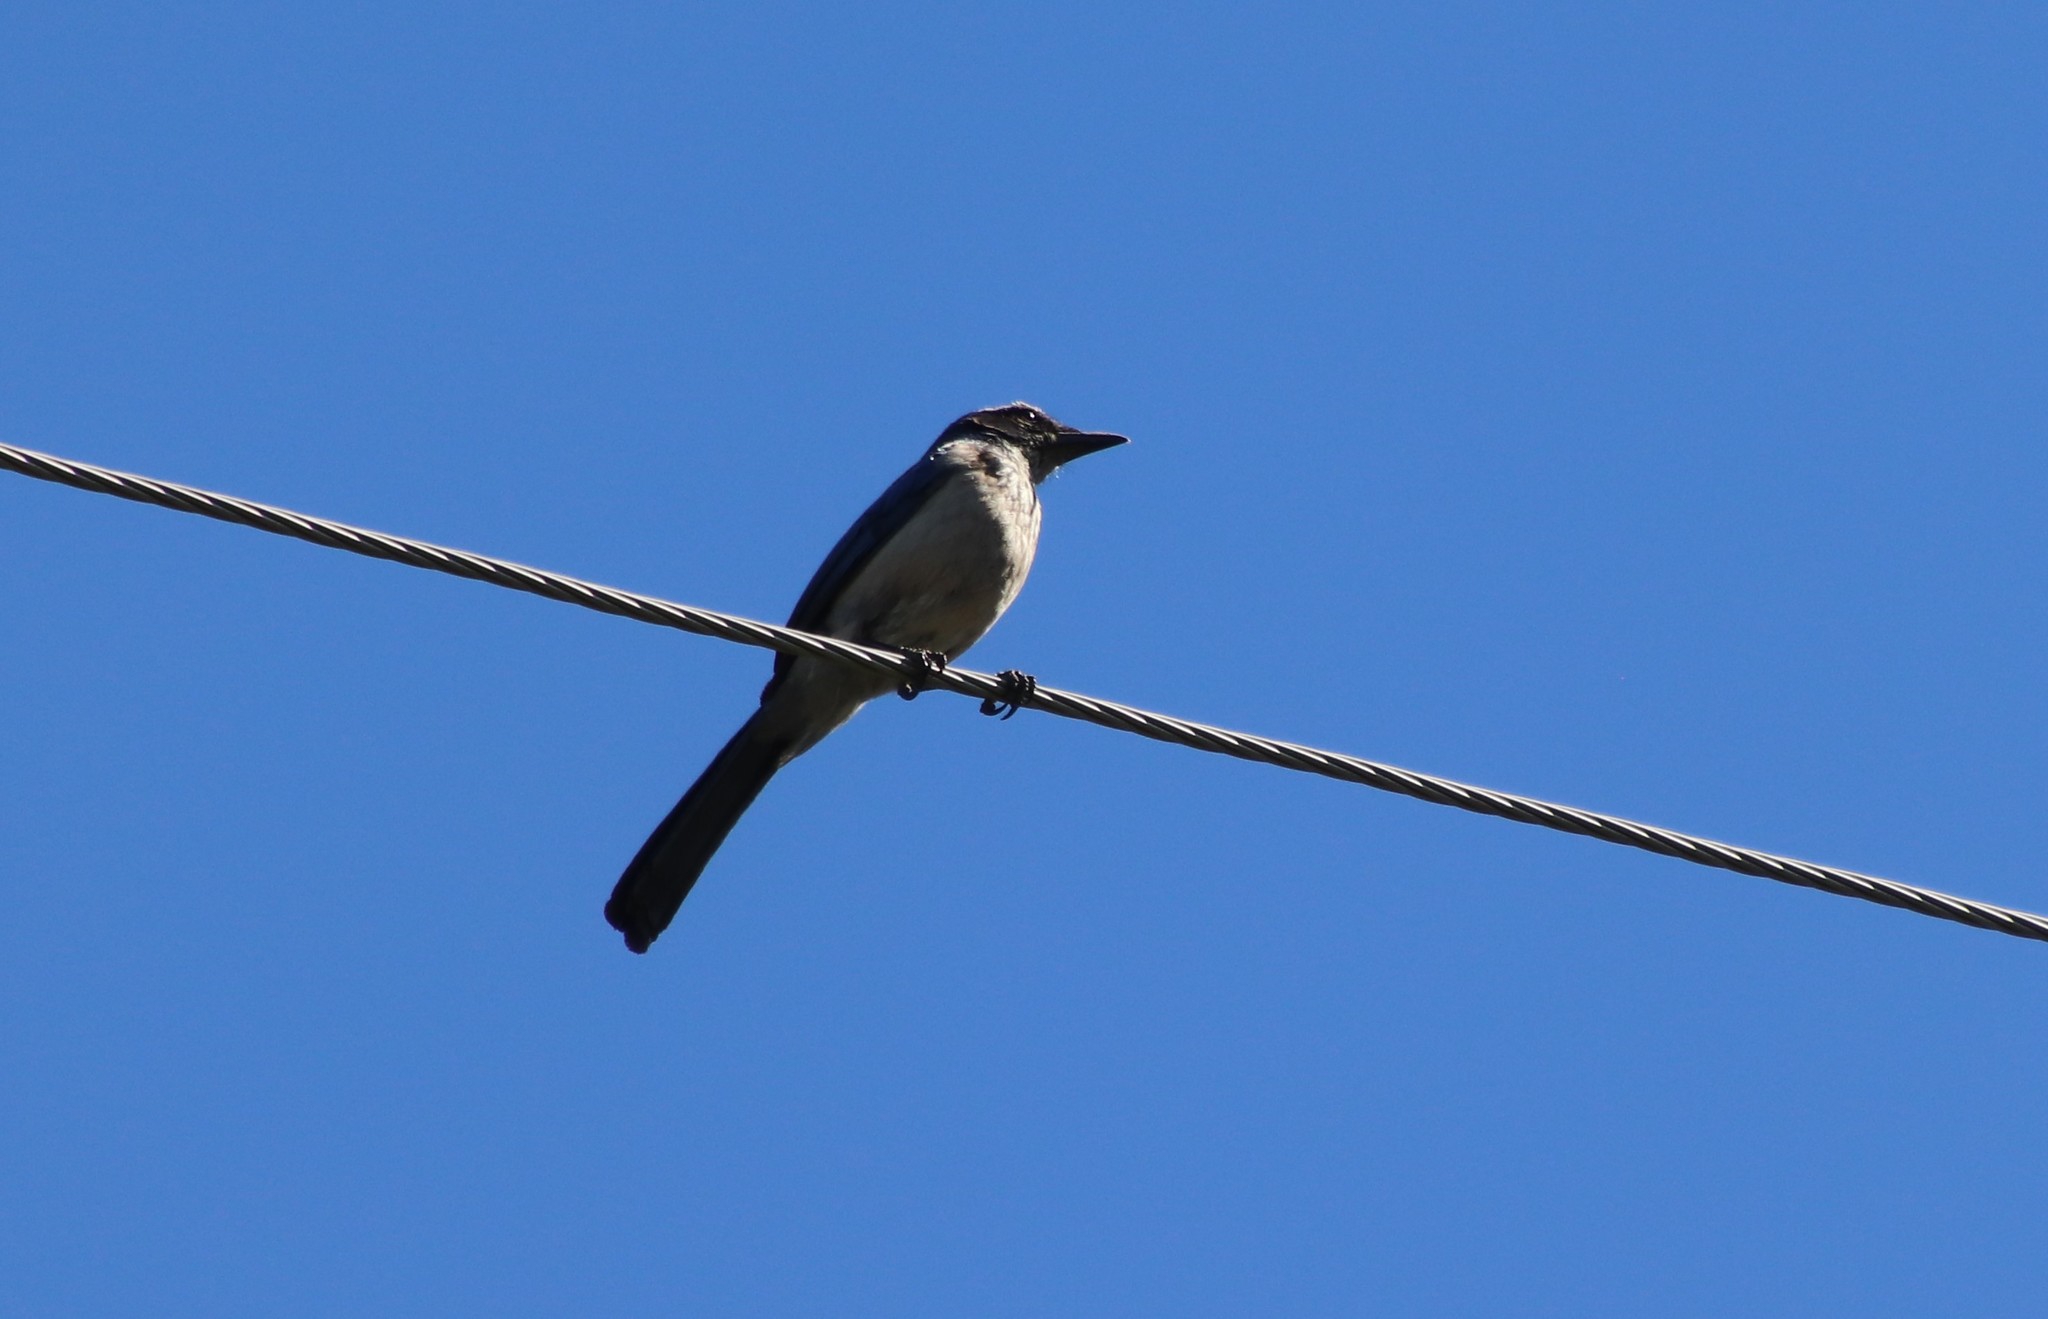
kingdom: Animalia
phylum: Chordata
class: Aves
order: Passeriformes
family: Corvidae
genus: Aphelocoma
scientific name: Aphelocoma californica
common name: California scrub-jay
